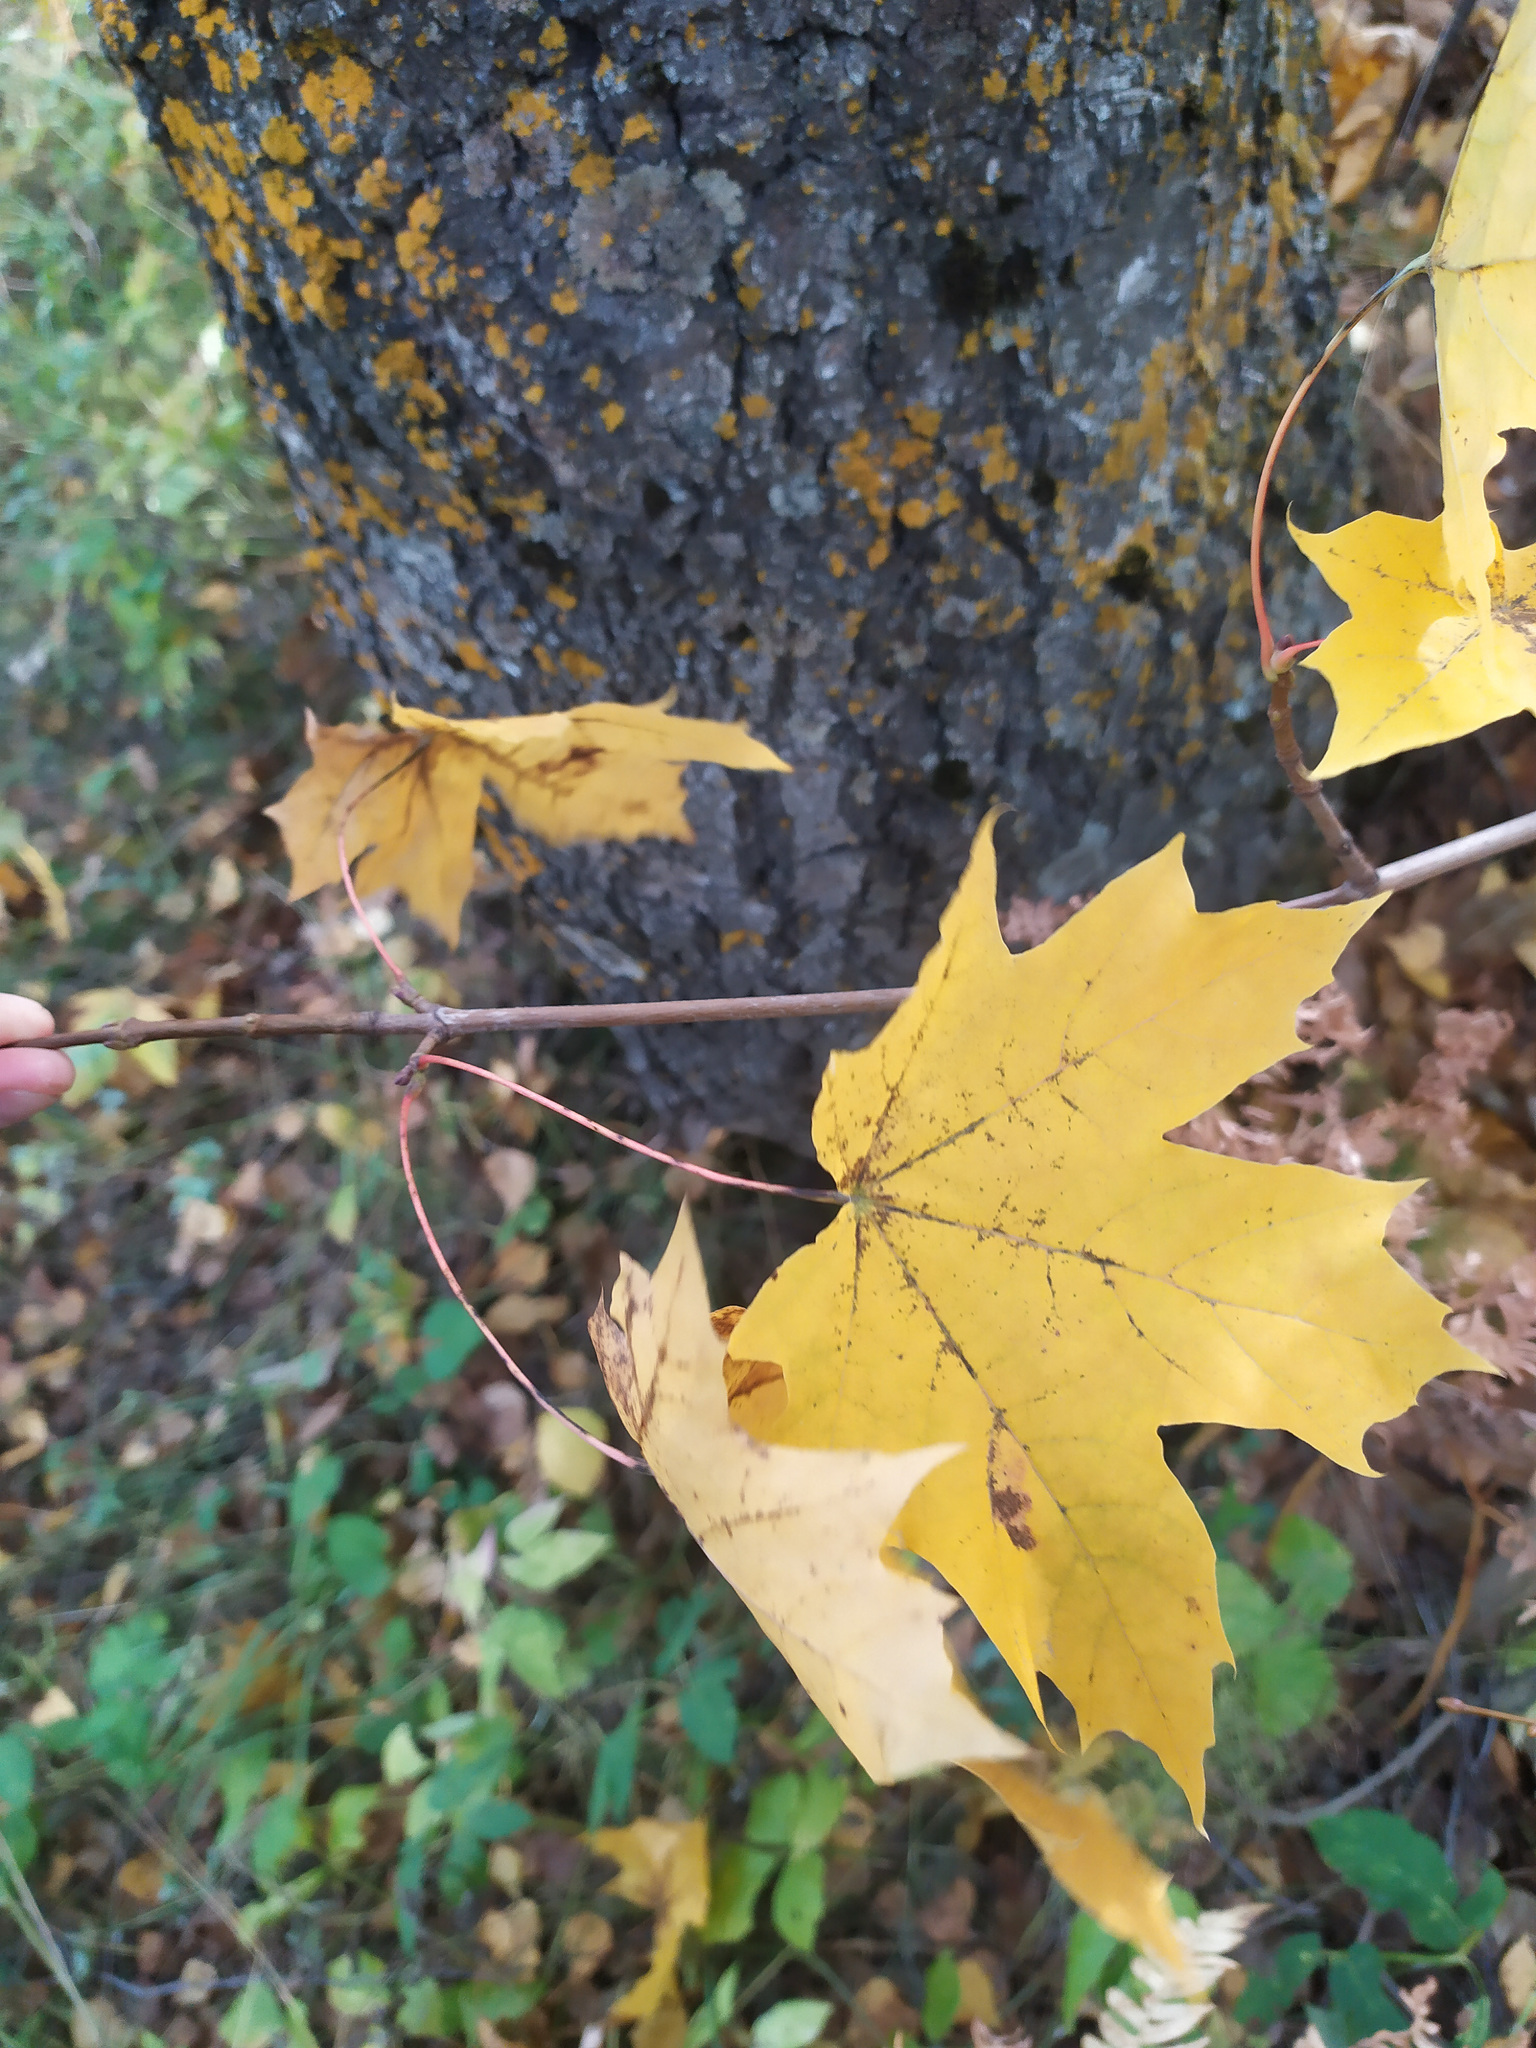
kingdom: Plantae
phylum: Tracheophyta
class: Magnoliopsida
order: Sapindales
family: Sapindaceae
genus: Acer
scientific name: Acer platanoides
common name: Norway maple
